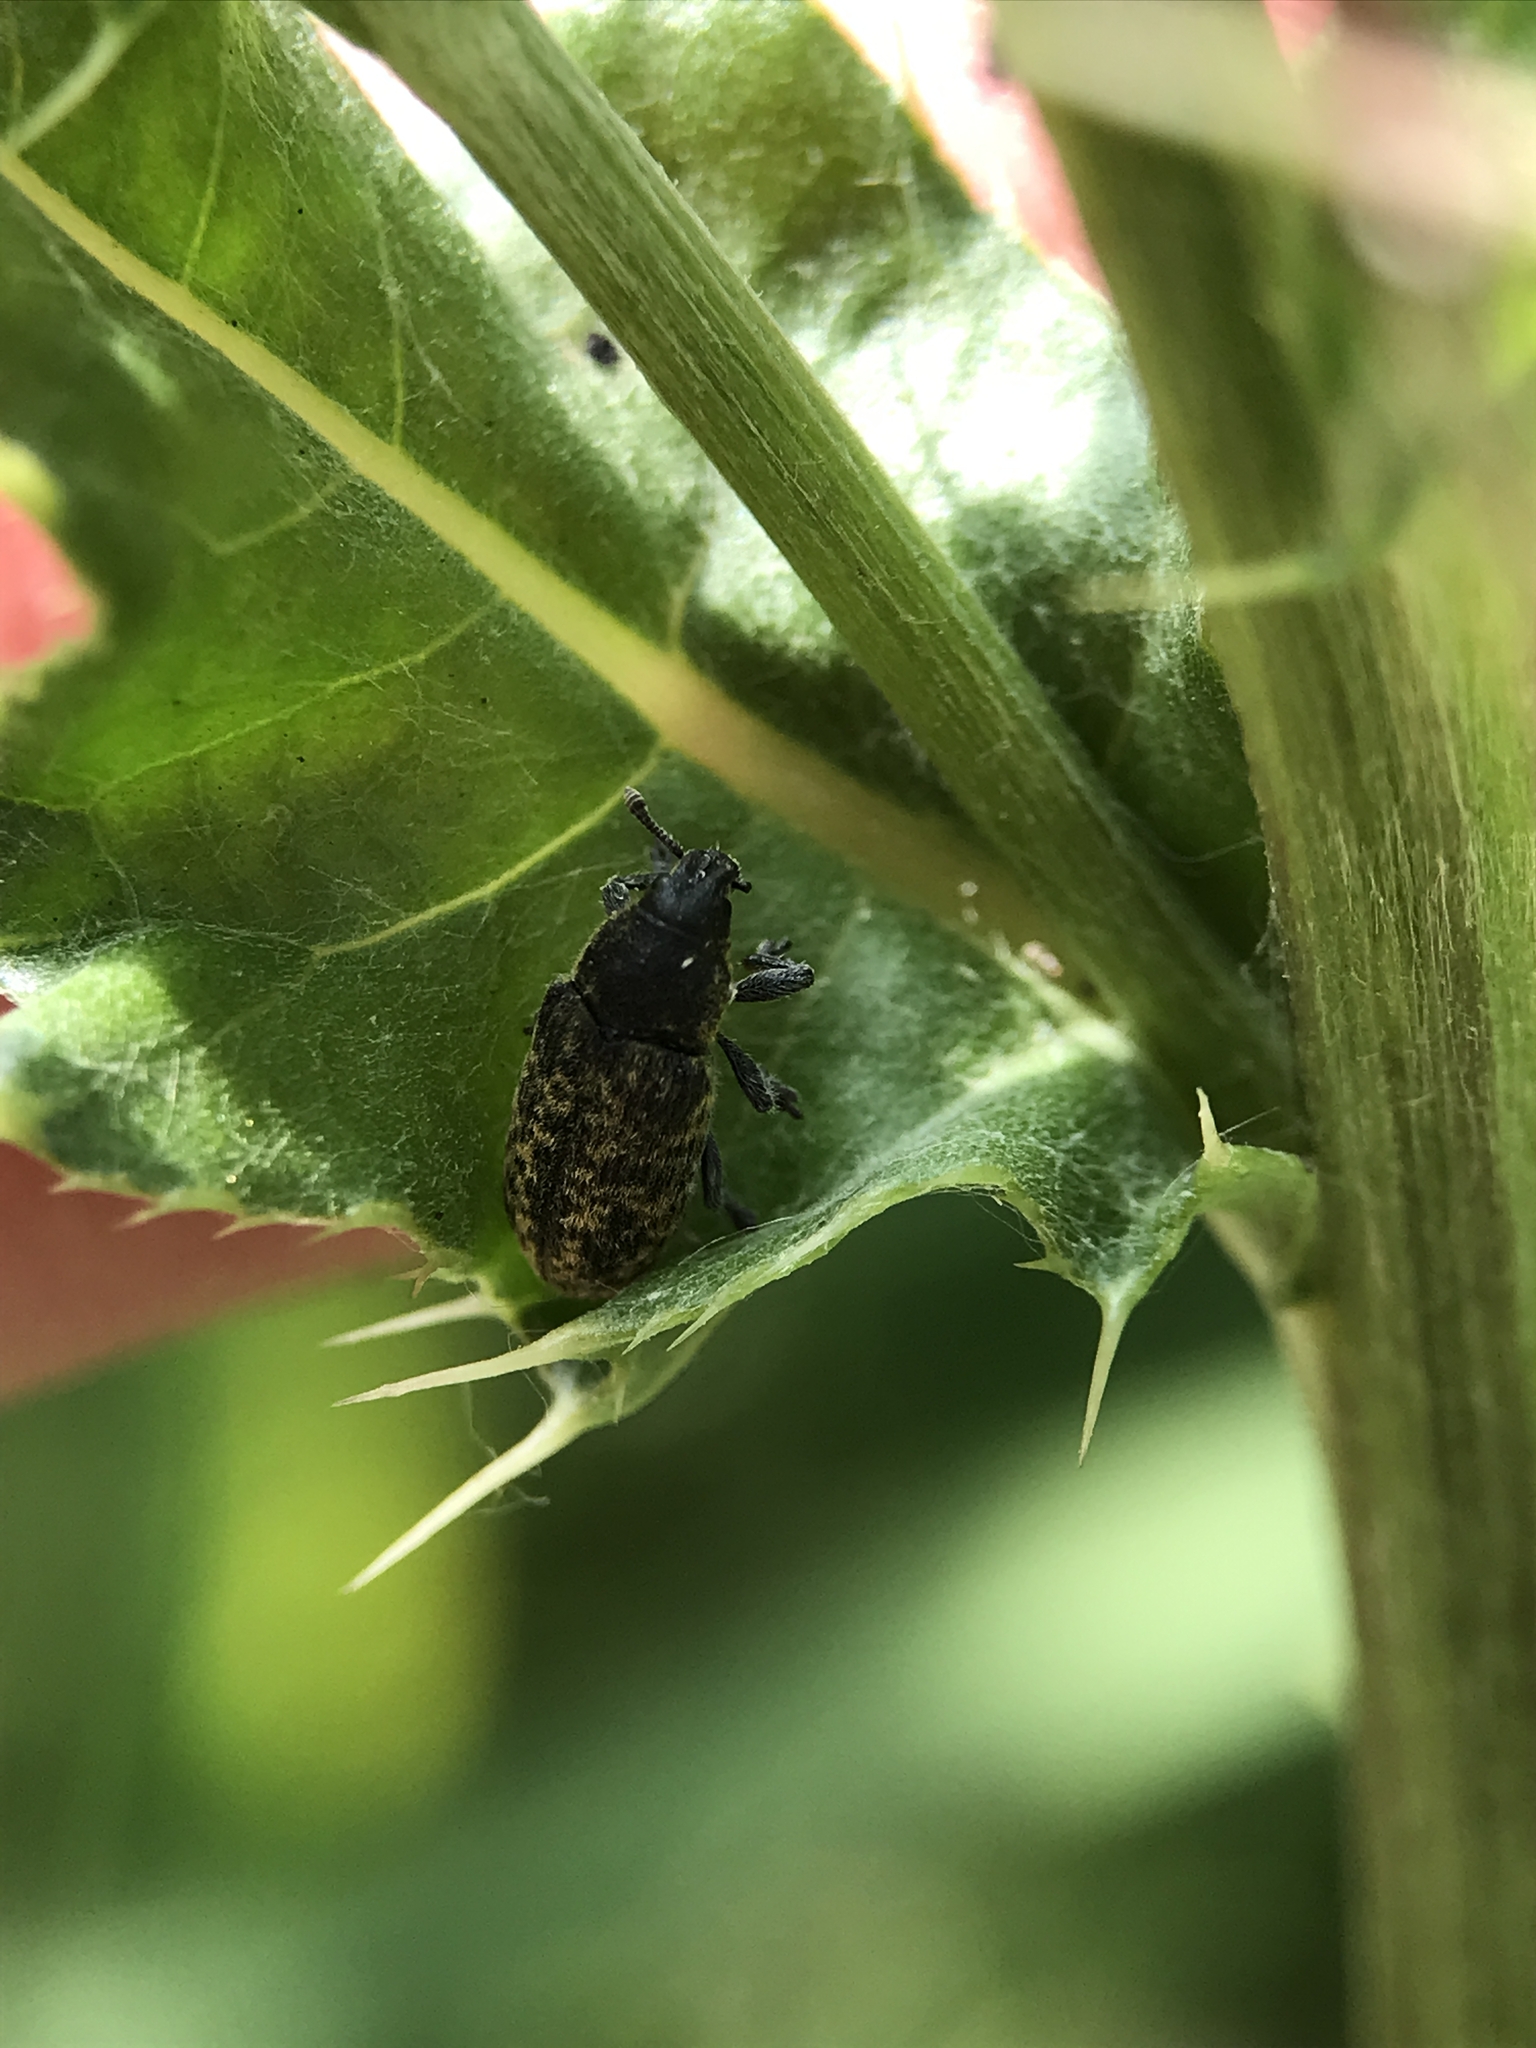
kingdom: Animalia
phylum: Arthropoda
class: Insecta
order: Coleoptera
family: Curculionidae
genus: Rhinocyllus
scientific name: Rhinocyllus conicus
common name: Weevil
